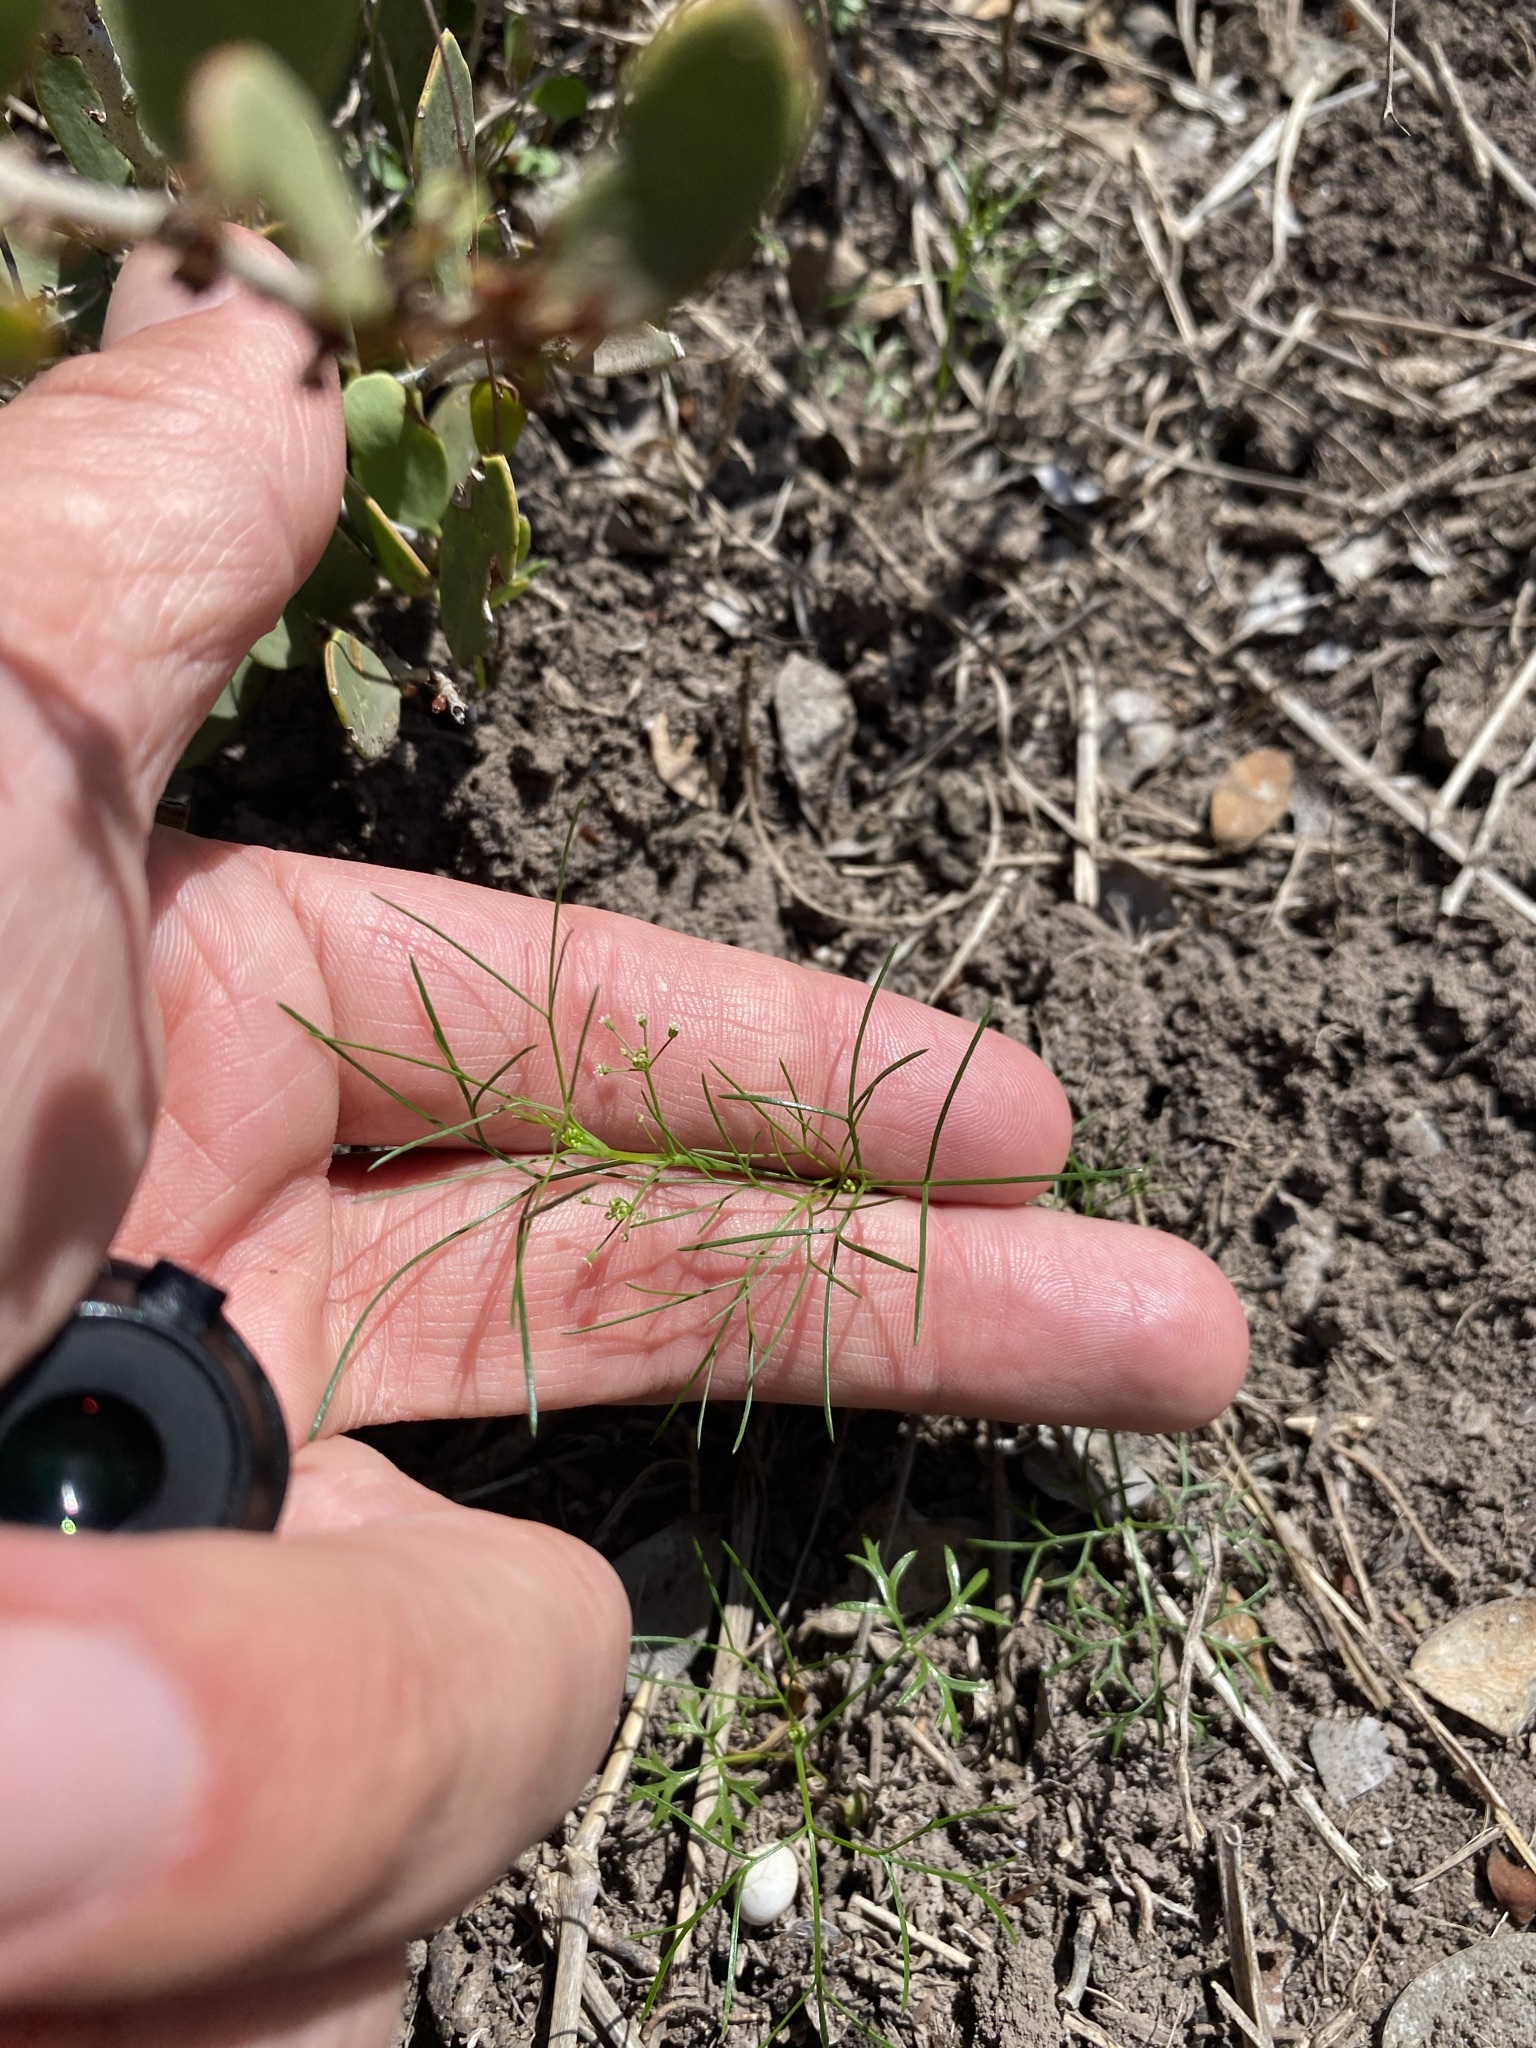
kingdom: Plantae
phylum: Tracheophyta
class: Magnoliopsida
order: Apiales
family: Apiaceae
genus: Cyclospermum
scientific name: Cyclospermum leptophyllum
